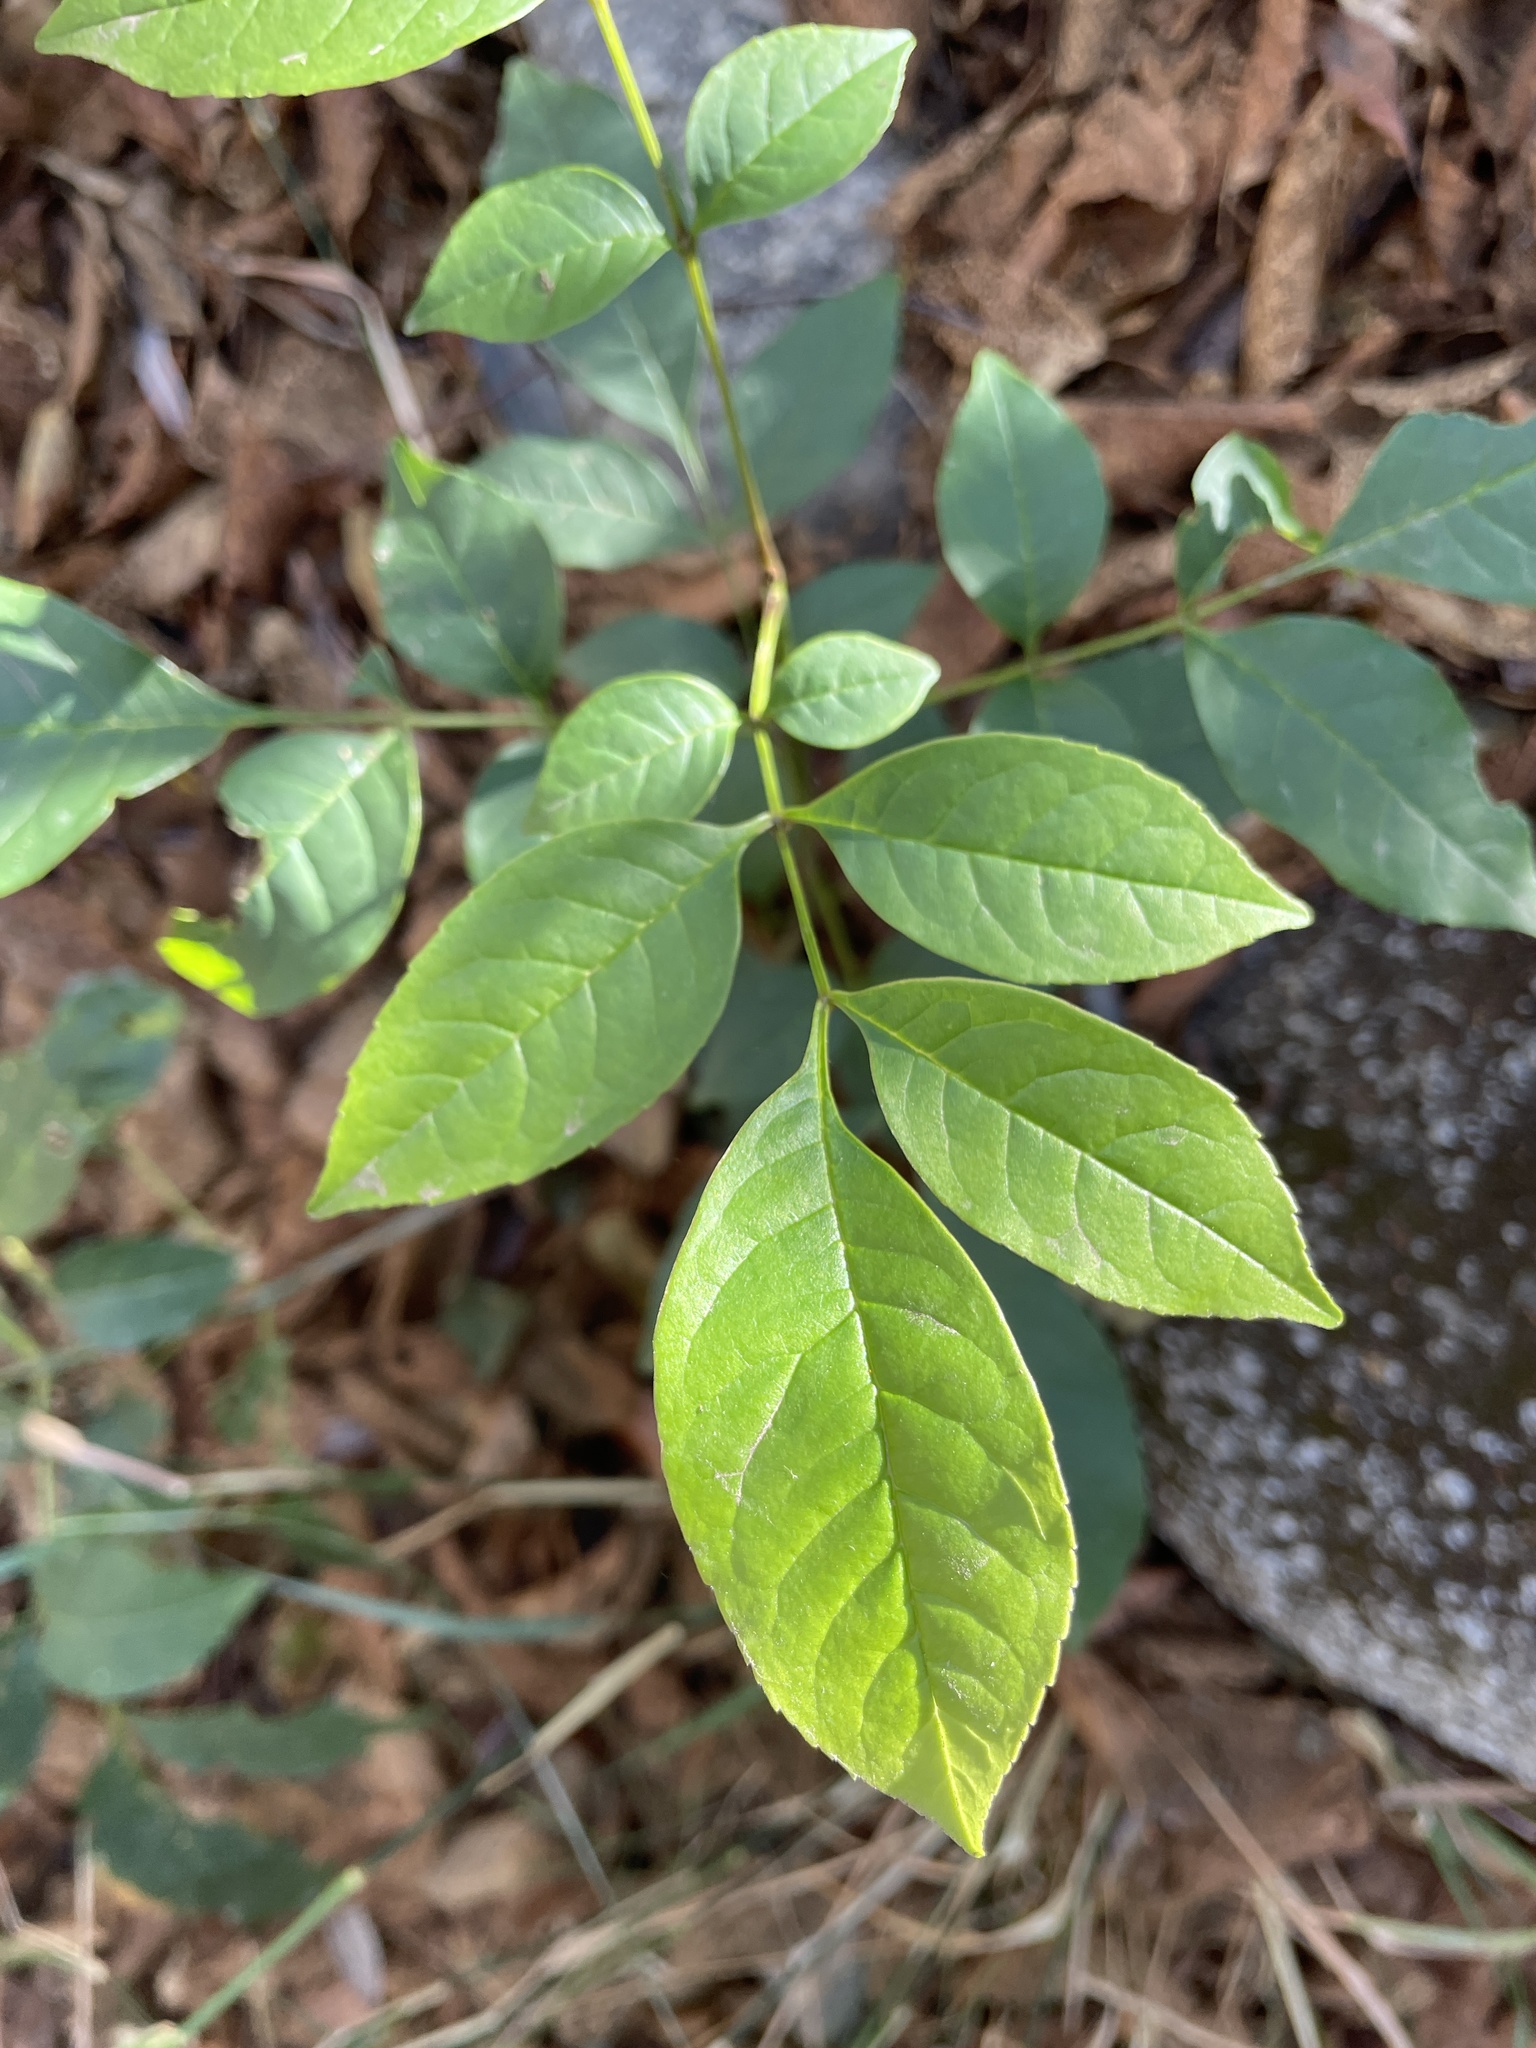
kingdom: Plantae
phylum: Tracheophyta
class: Magnoliopsida
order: Lamiales
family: Oleaceae
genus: Fraxinus
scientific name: Fraxinus uhdei
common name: Shamel ash
